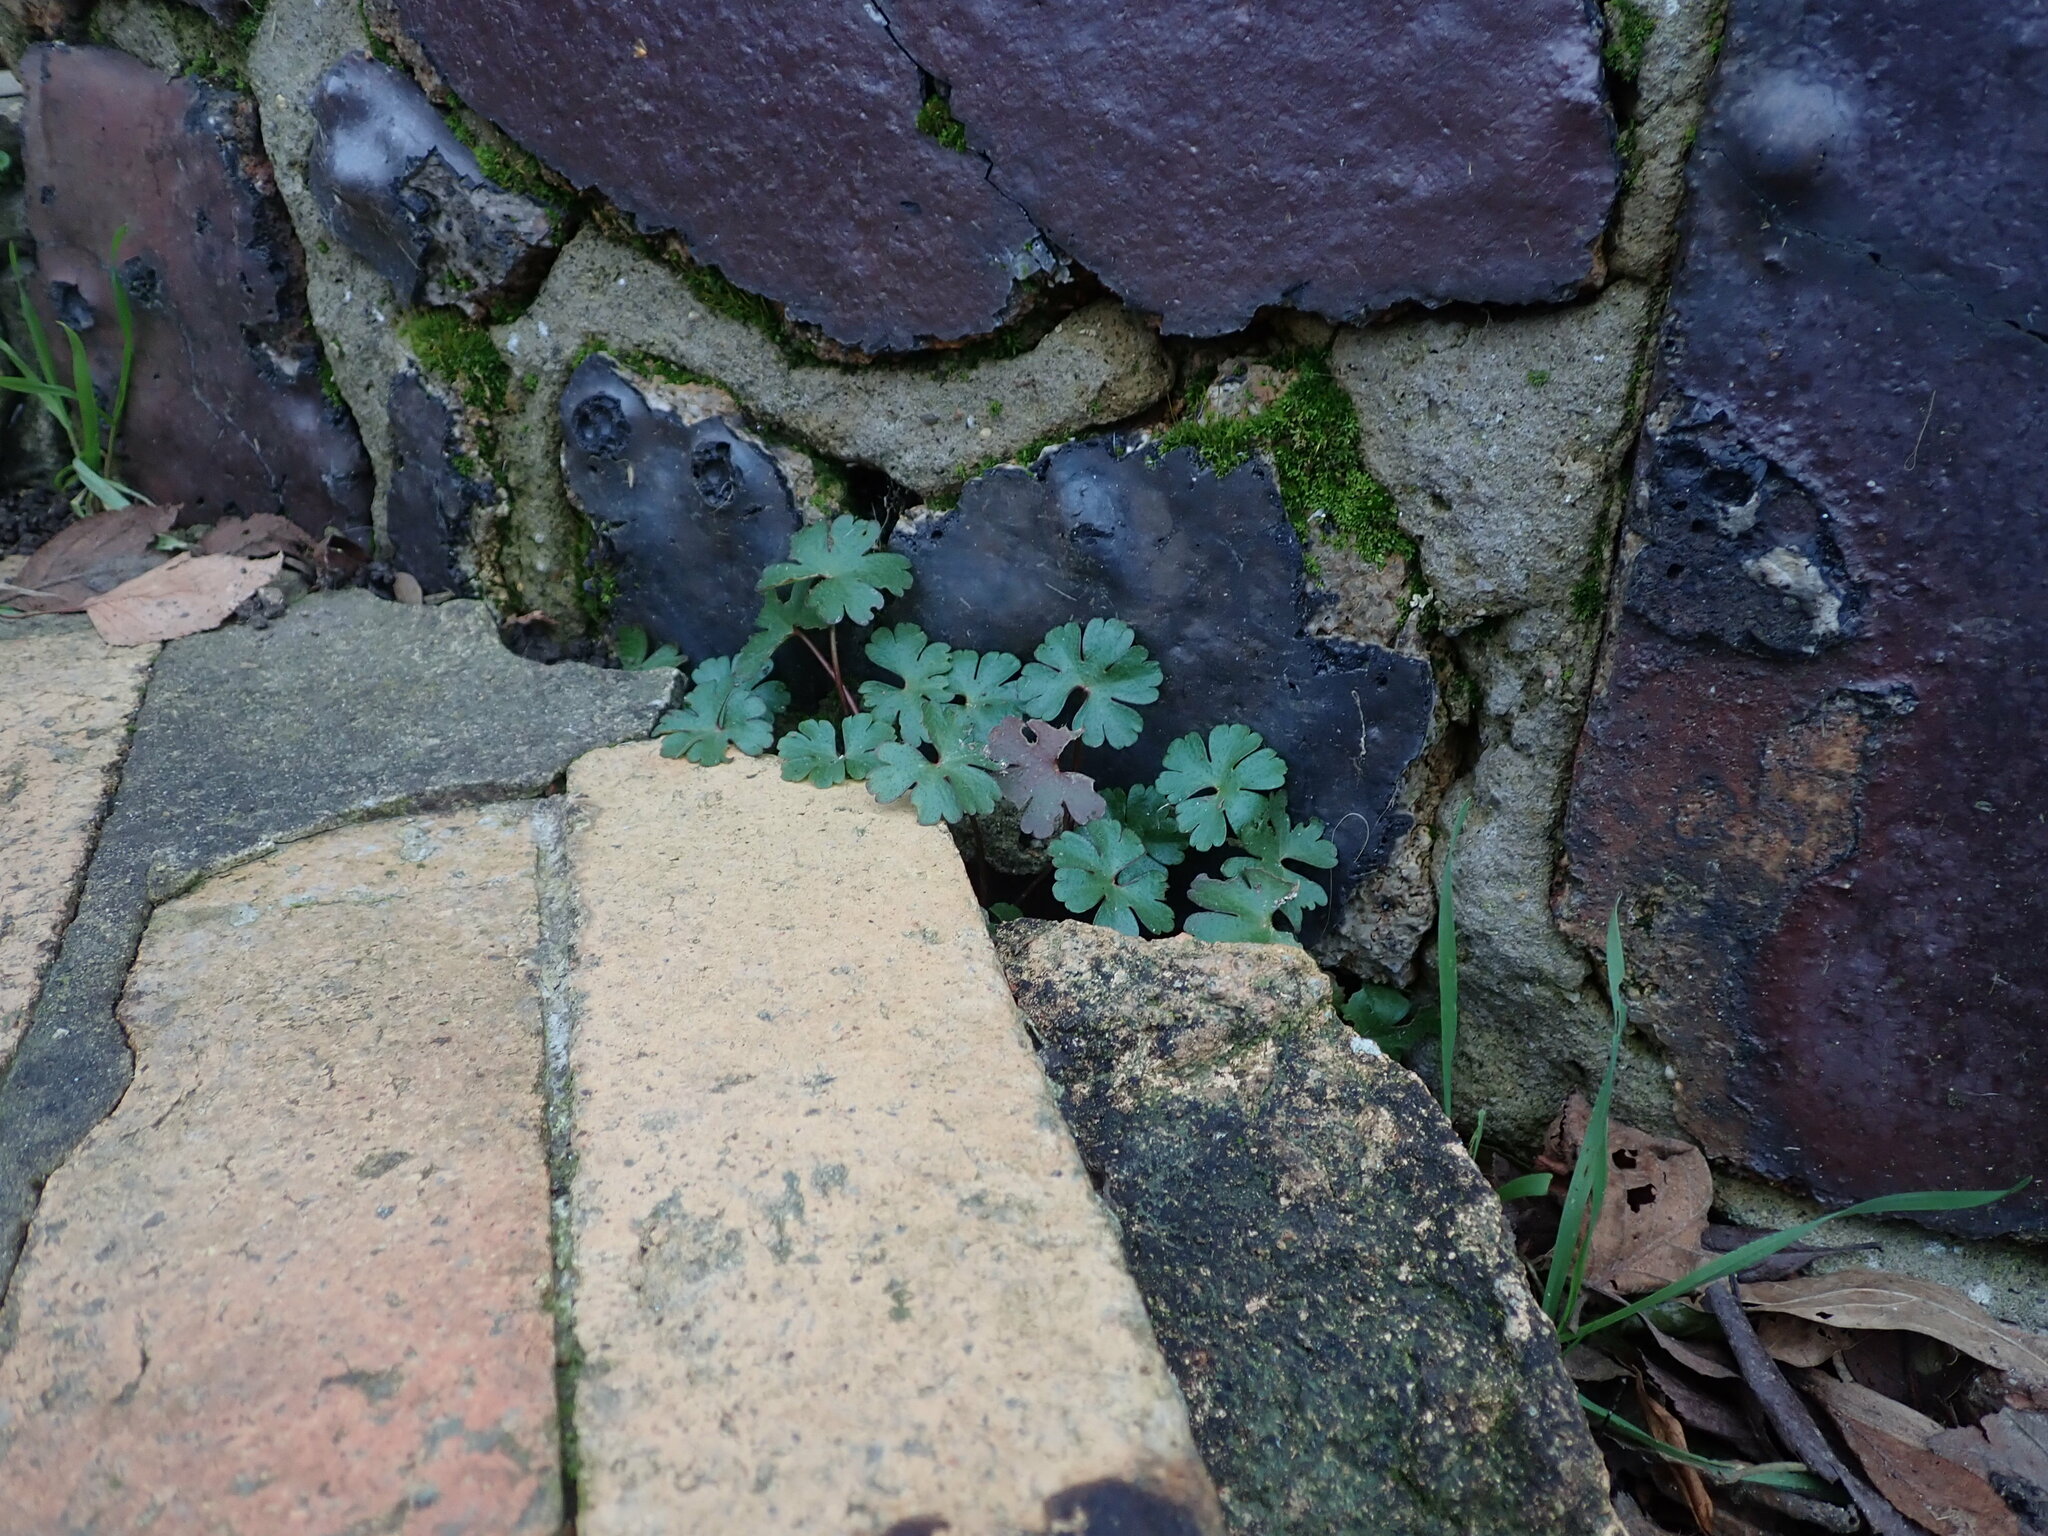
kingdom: Plantae
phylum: Tracheophyta
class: Magnoliopsida
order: Geraniales
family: Geraniaceae
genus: Geranium
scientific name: Geranium lucidum
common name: Shining crane's-bill
